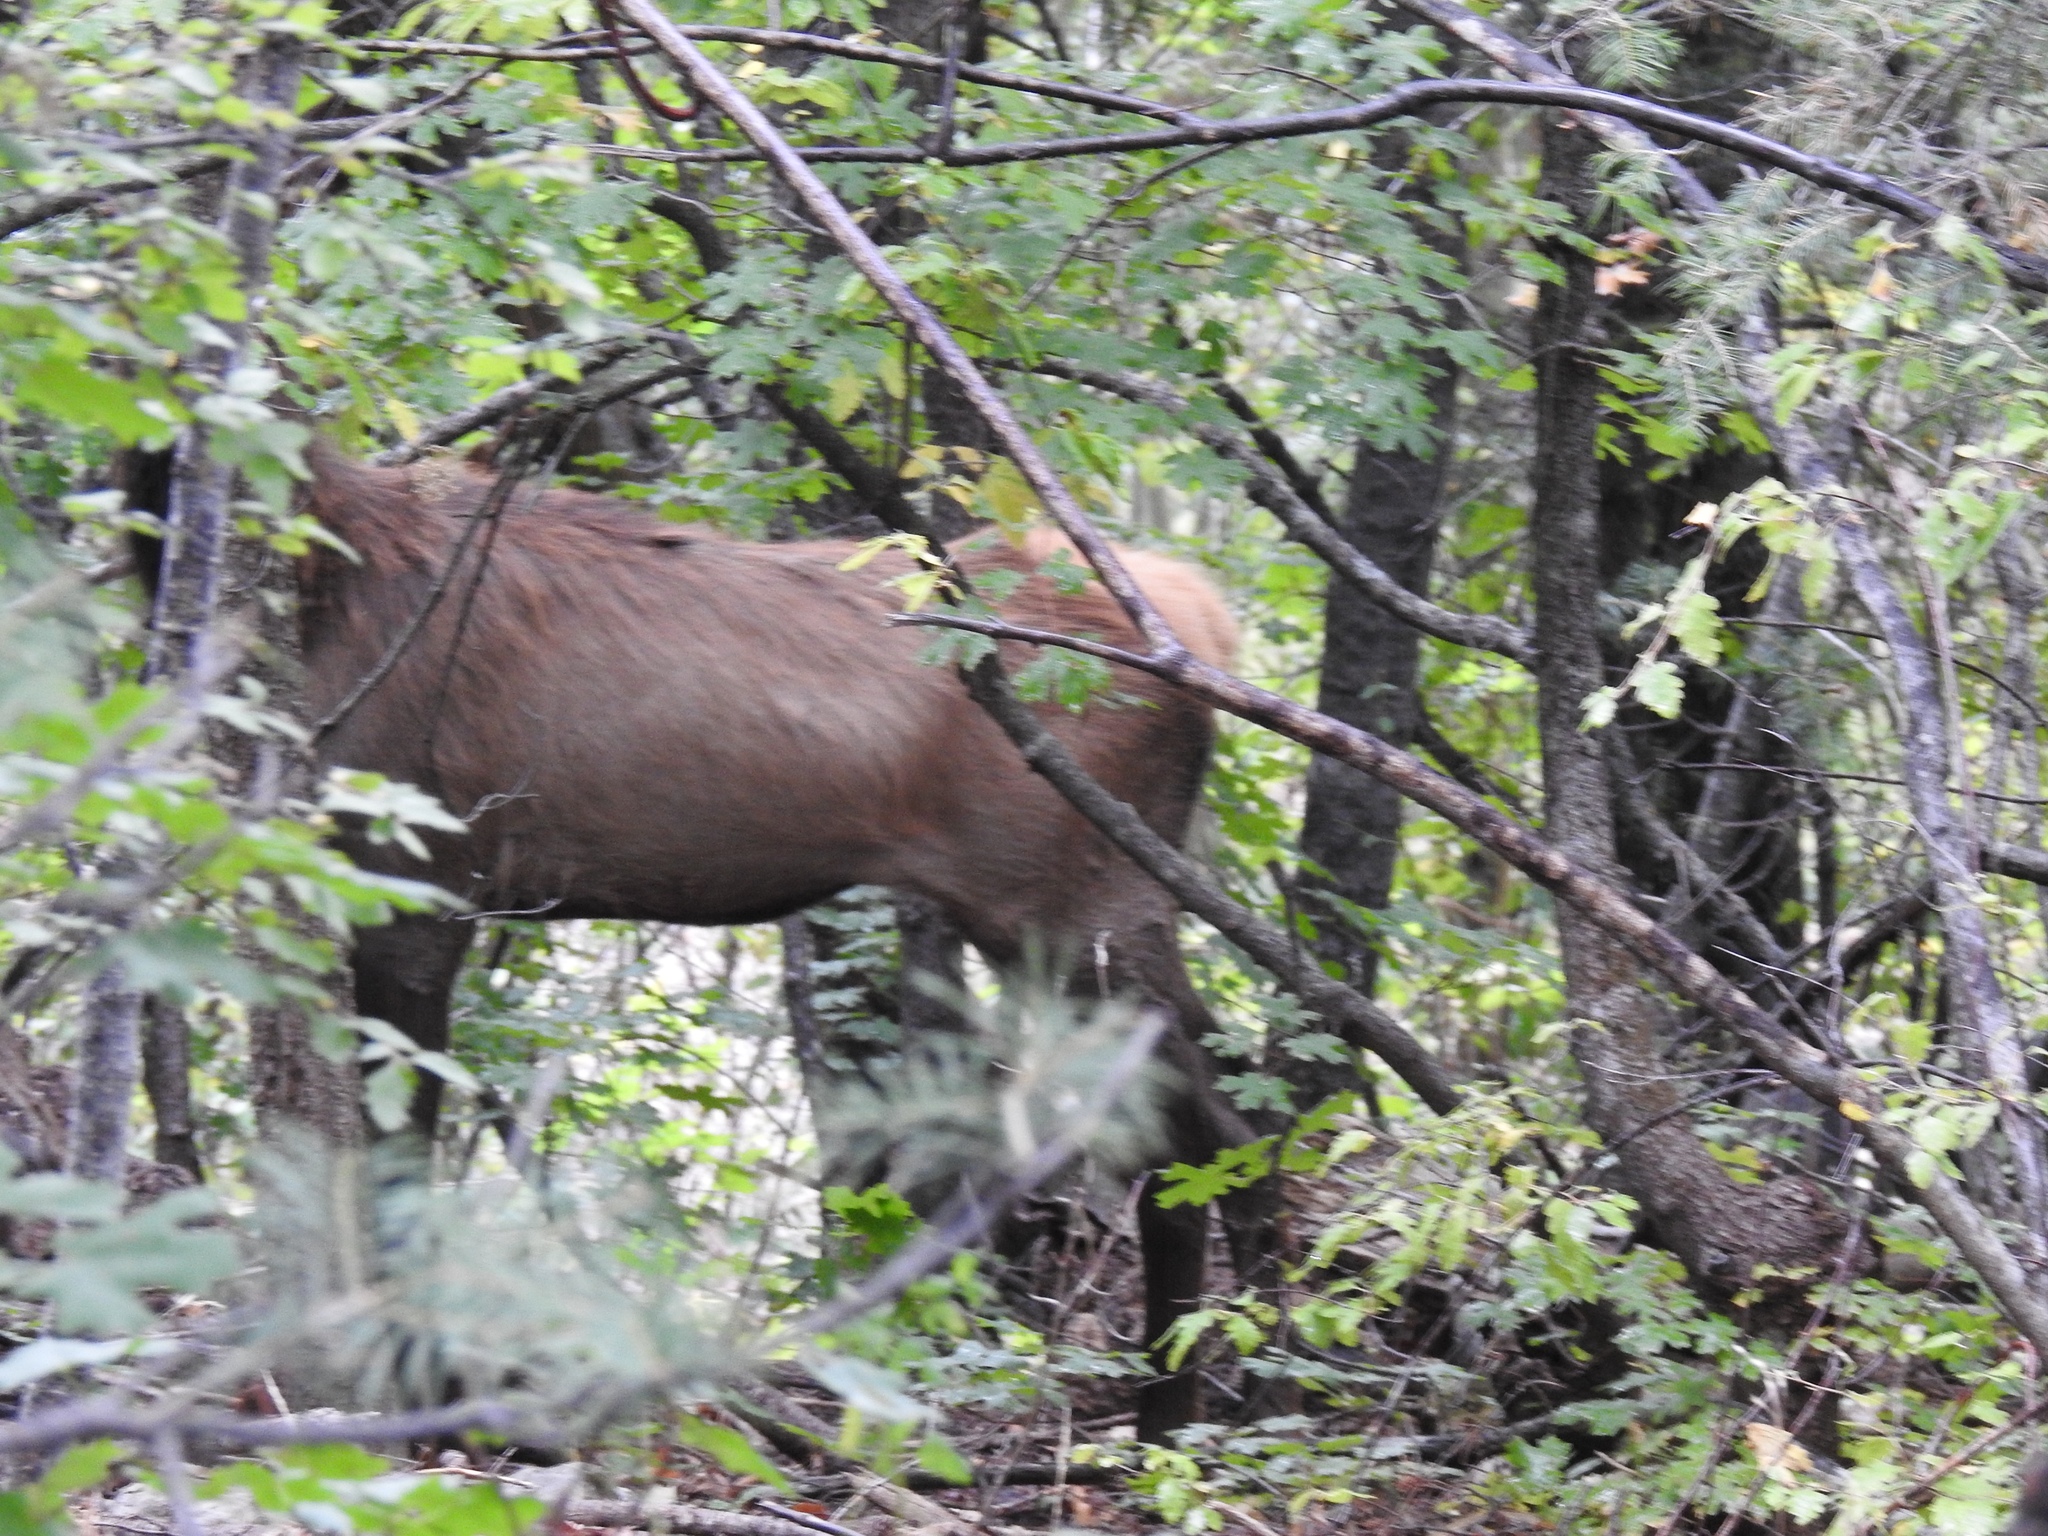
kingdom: Animalia
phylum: Chordata
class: Mammalia
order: Artiodactyla
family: Cervidae
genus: Cervus
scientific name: Cervus elaphus
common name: Red deer
